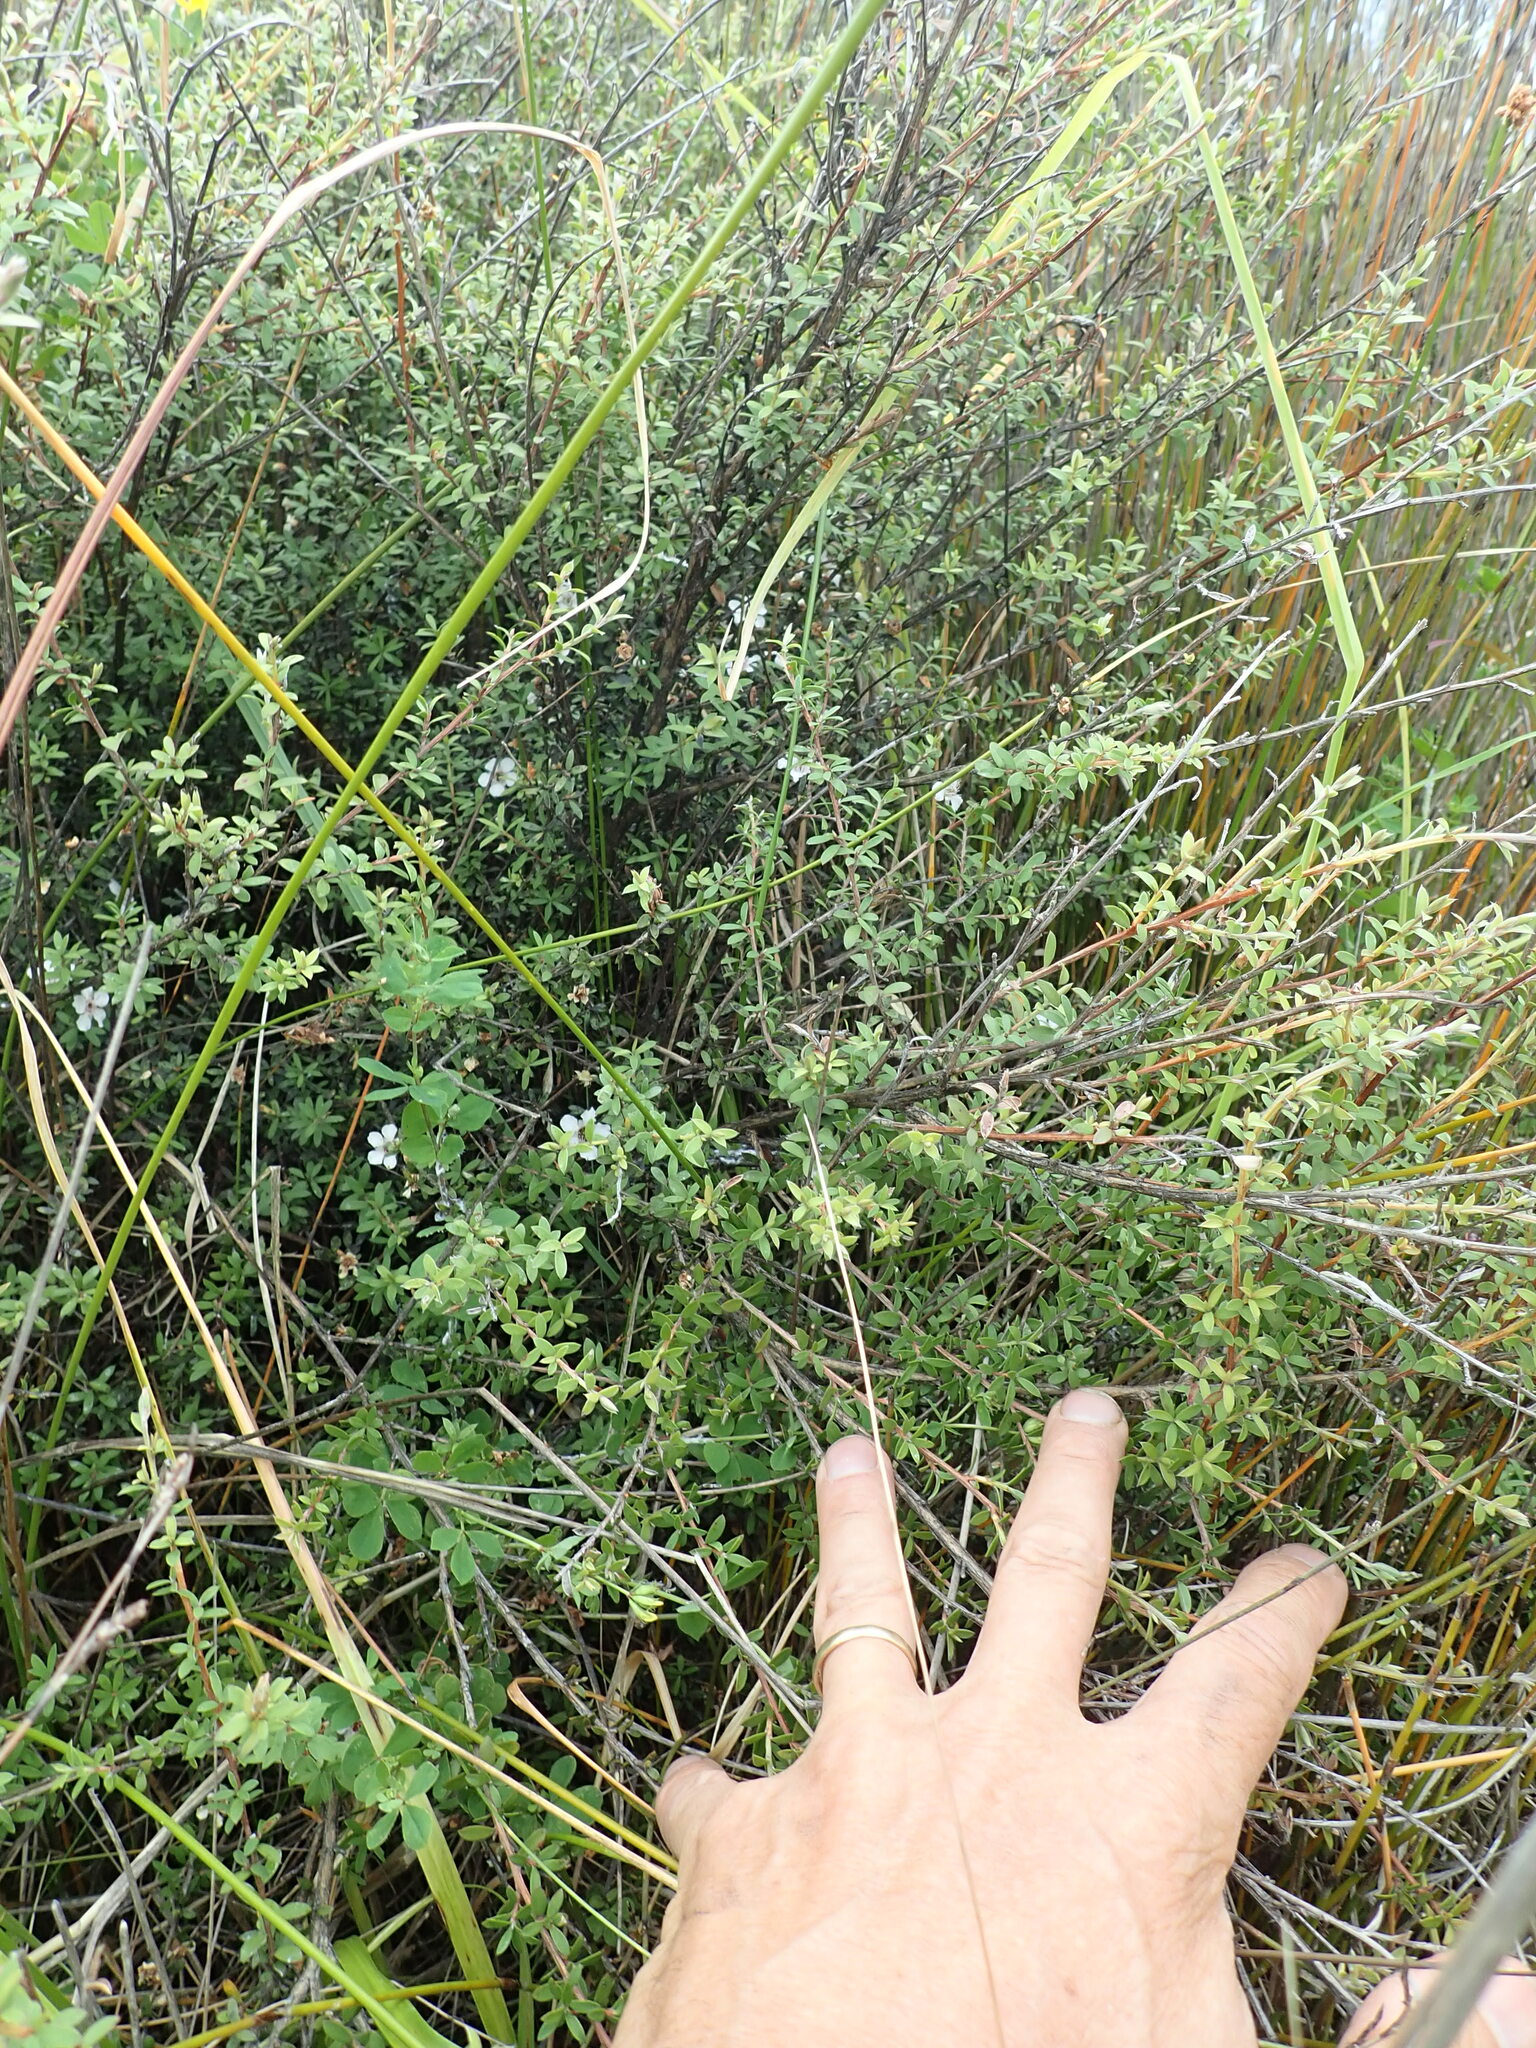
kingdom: Plantae
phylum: Tracheophyta
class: Magnoliopsida
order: Myrtales
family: Myrtaceae
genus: Leptospermum
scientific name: Leptospermum scoparium
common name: Broom tea-tree
